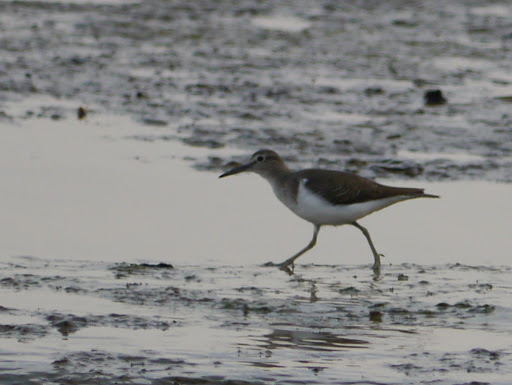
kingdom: Animalia
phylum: Chordata
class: Aves
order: Charadriiformes
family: Scolopacidae
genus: Actitis
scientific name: Actitis hypoleucos
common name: Common sandpiper
